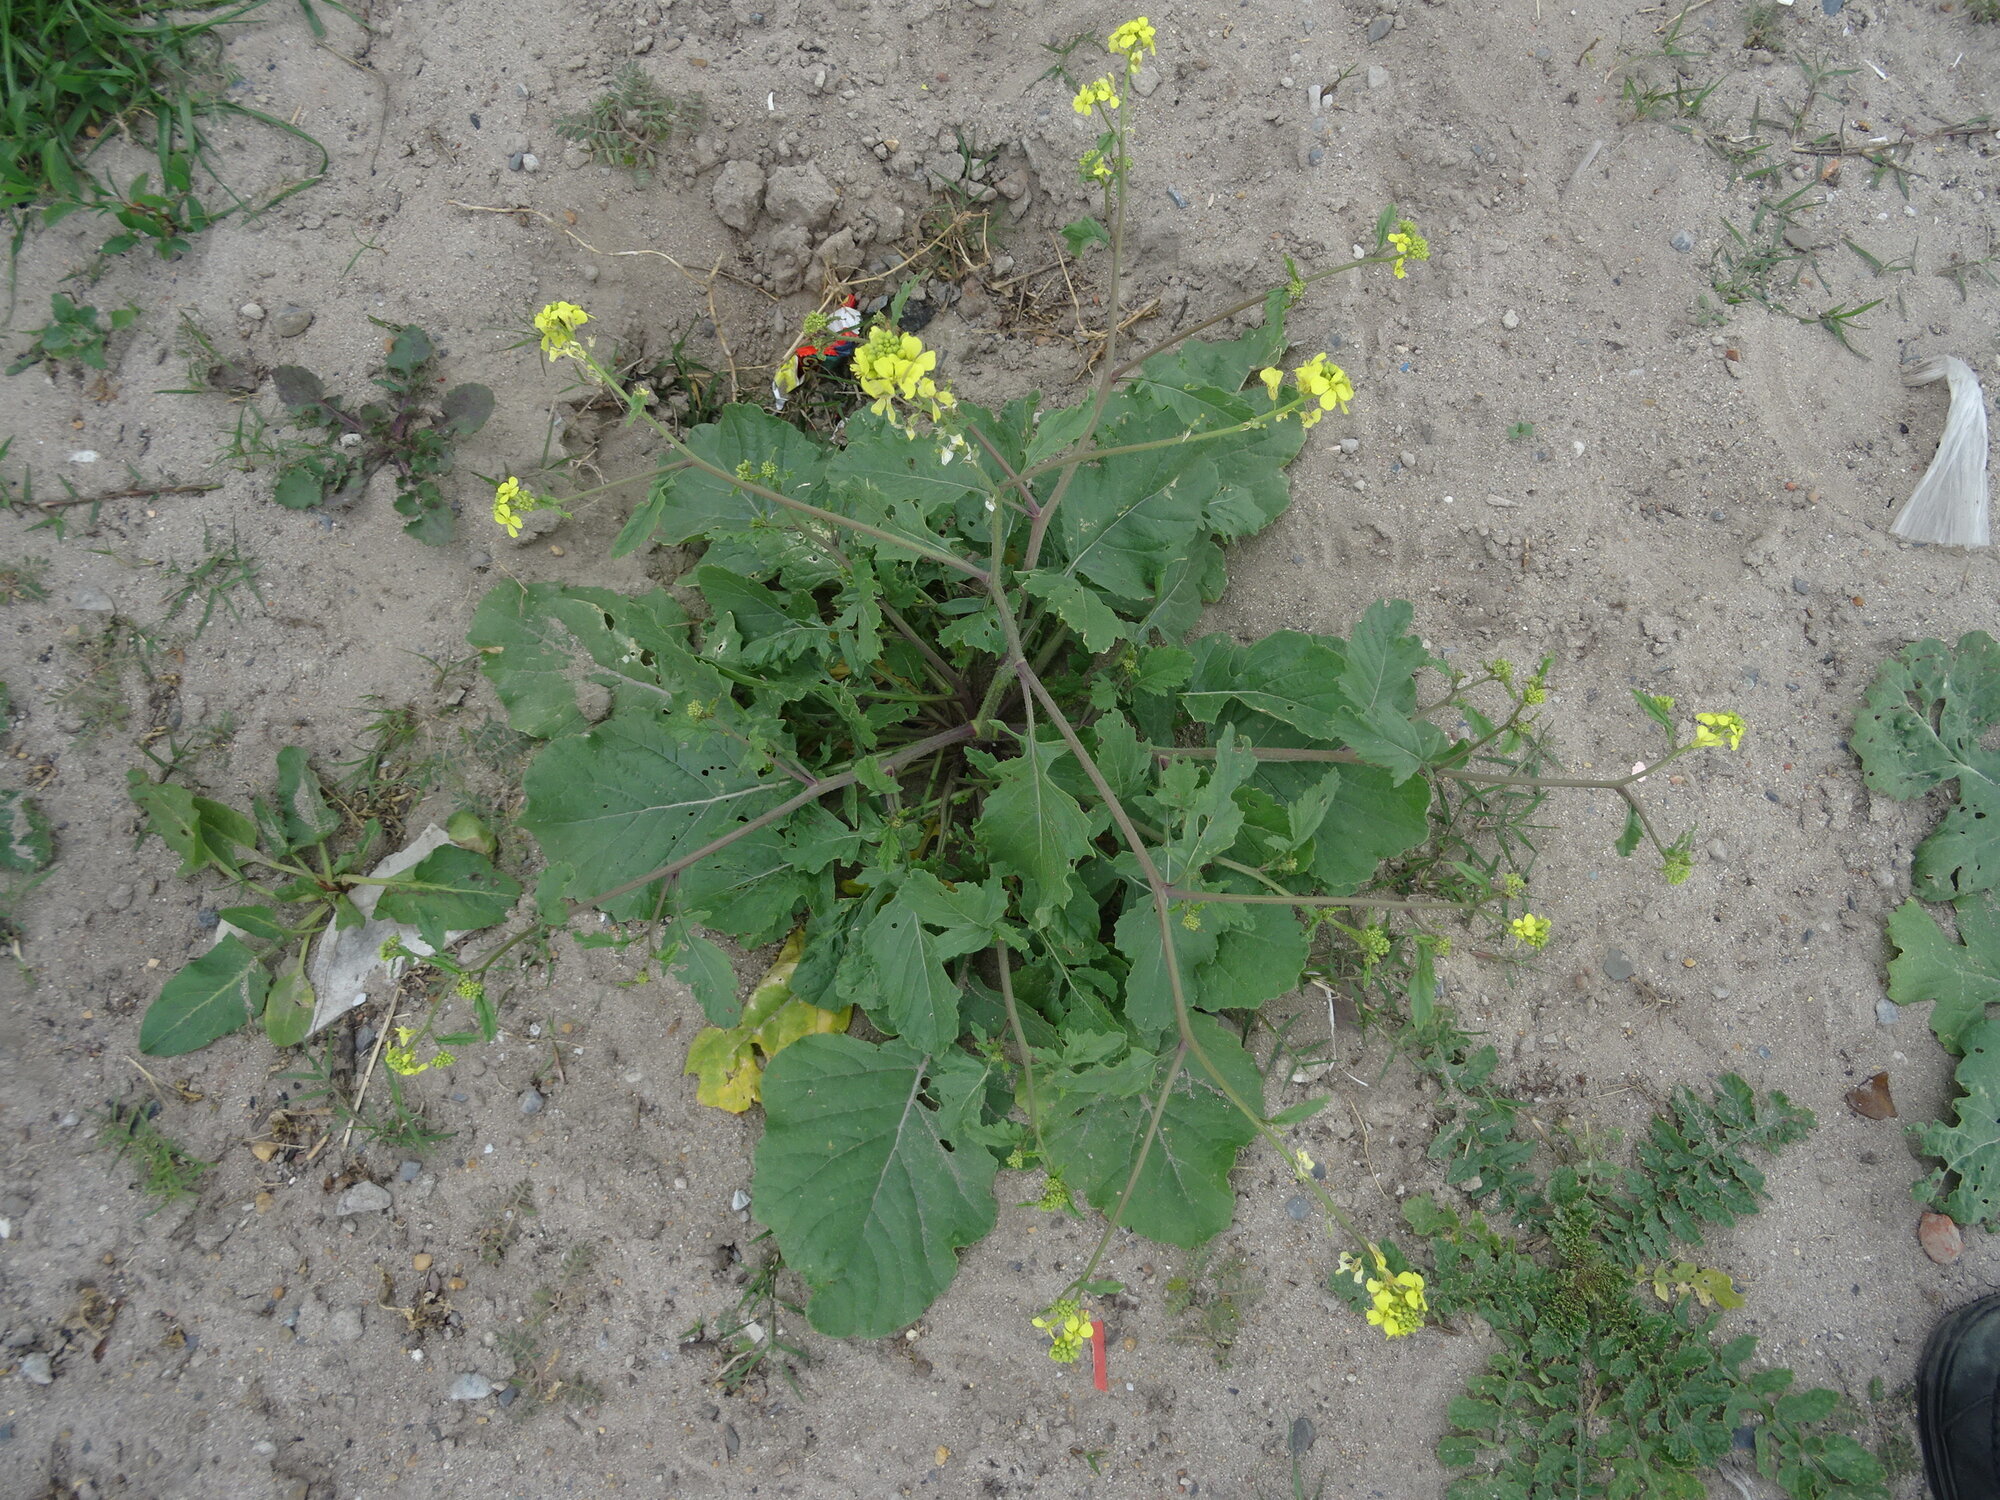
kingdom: Plantae
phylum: Tracheophyta
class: Magnoliopsida
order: Brassicales
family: Brassicaceae
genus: Rapistrum
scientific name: Rapistrum rugosum
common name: Annual bastardcabbage
